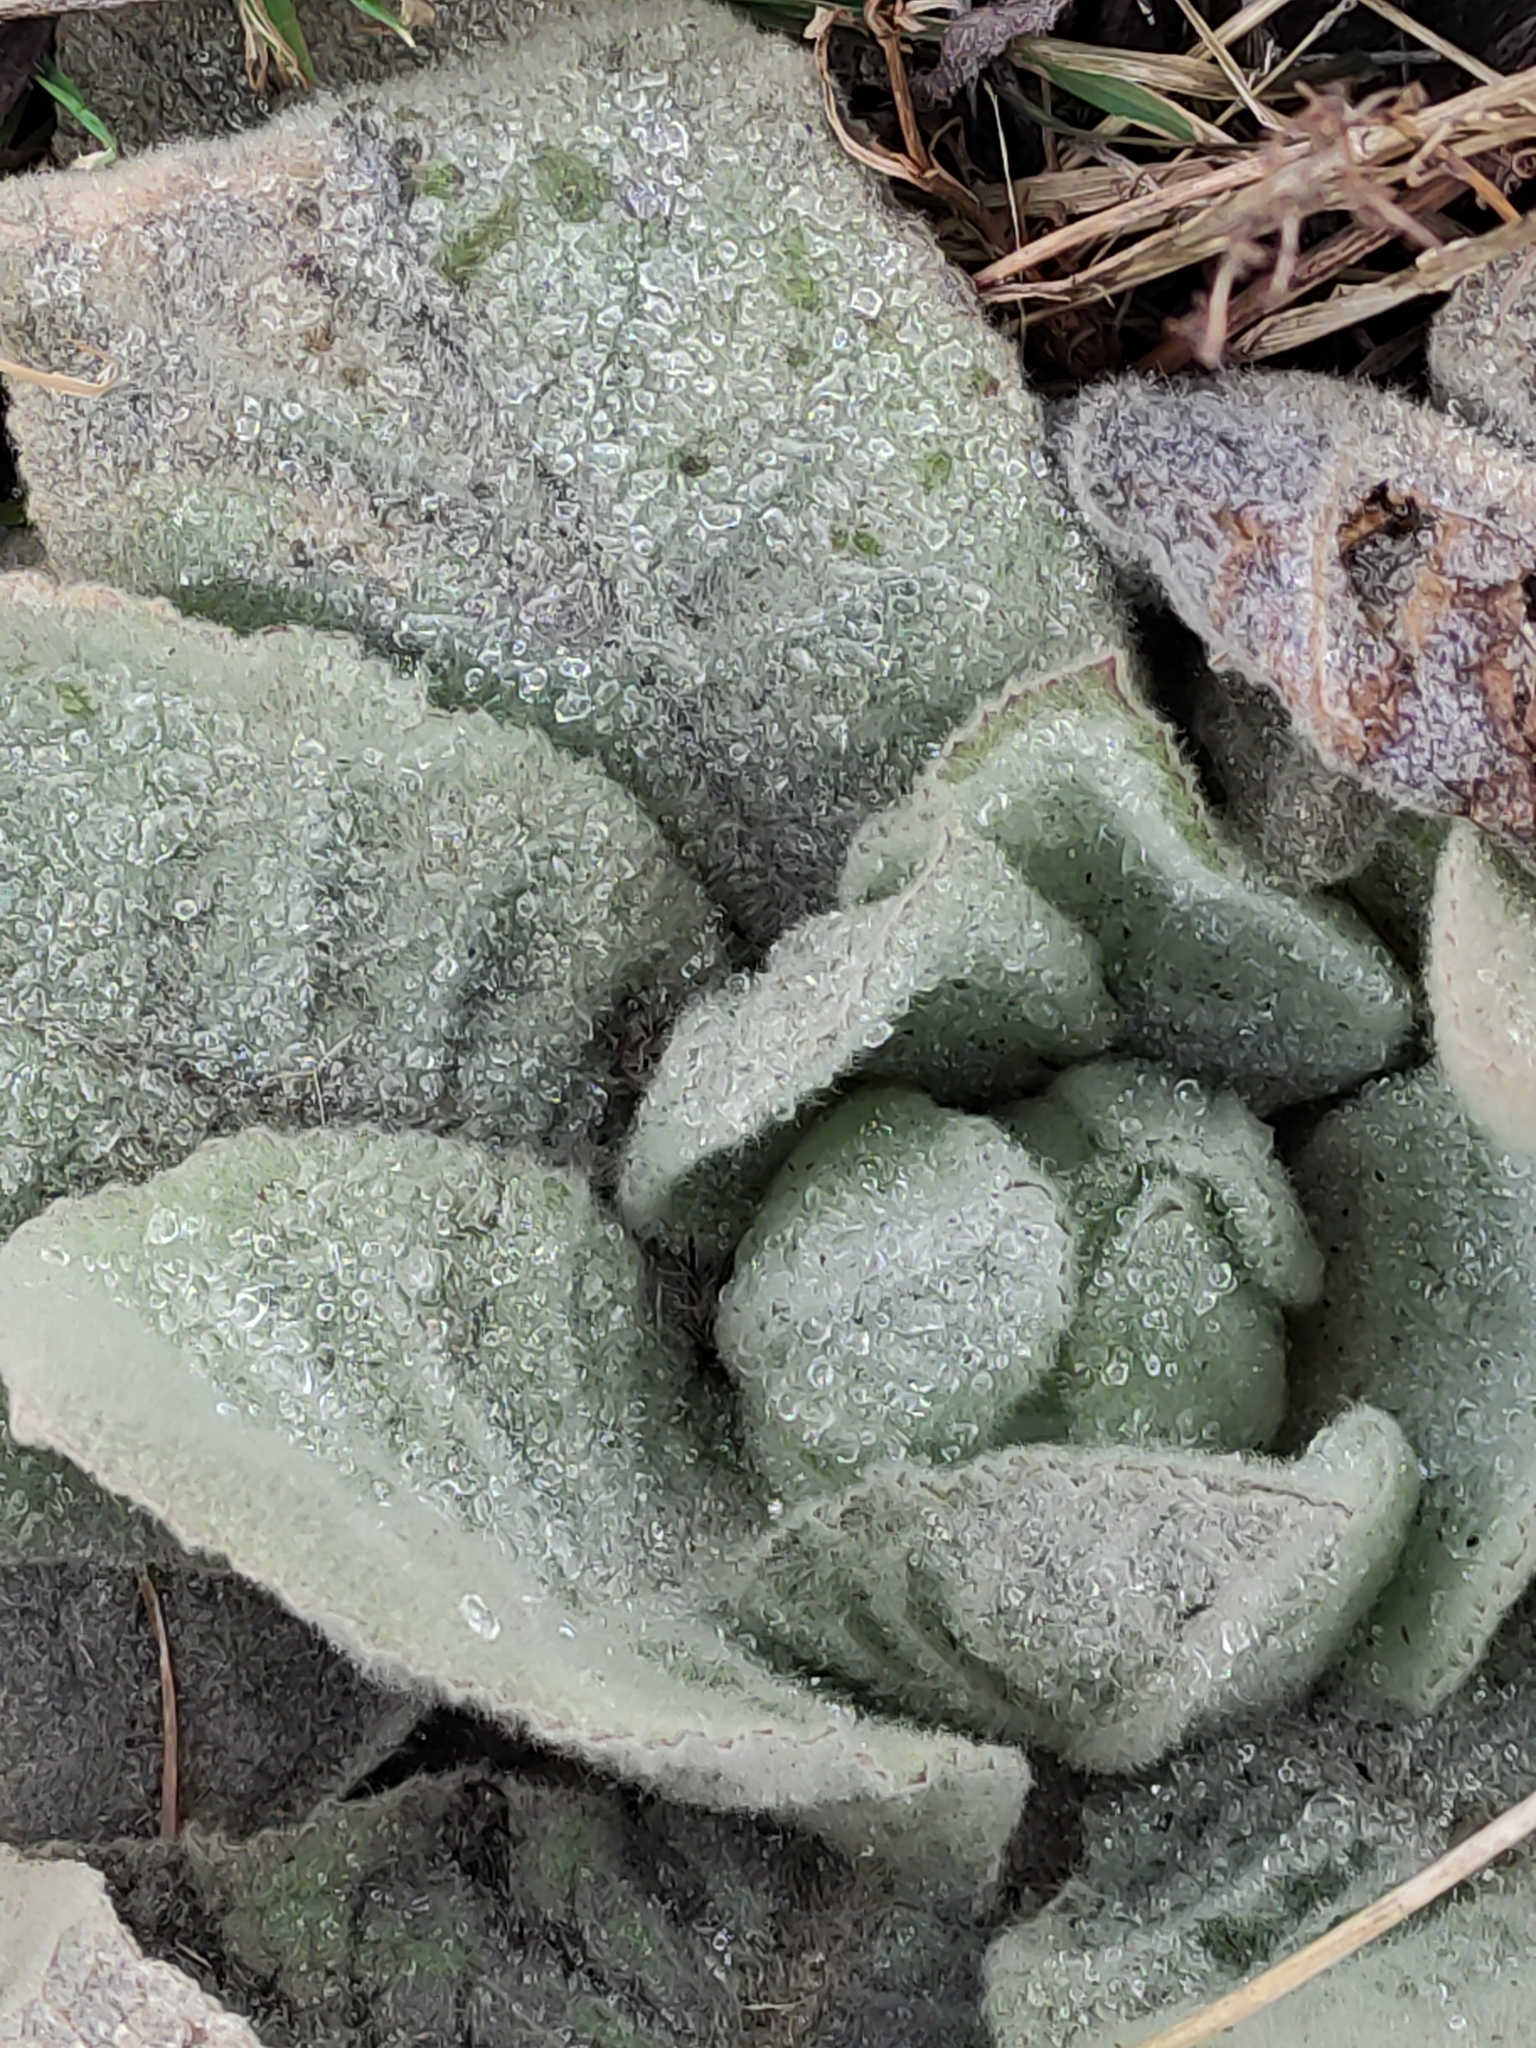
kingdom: Plantae
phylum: Tracheophyta
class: Magnoliopsida
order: Lamiales
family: Scrophulariaceae
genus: Verbascum
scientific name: Verbascum thapsus
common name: Common mullein
